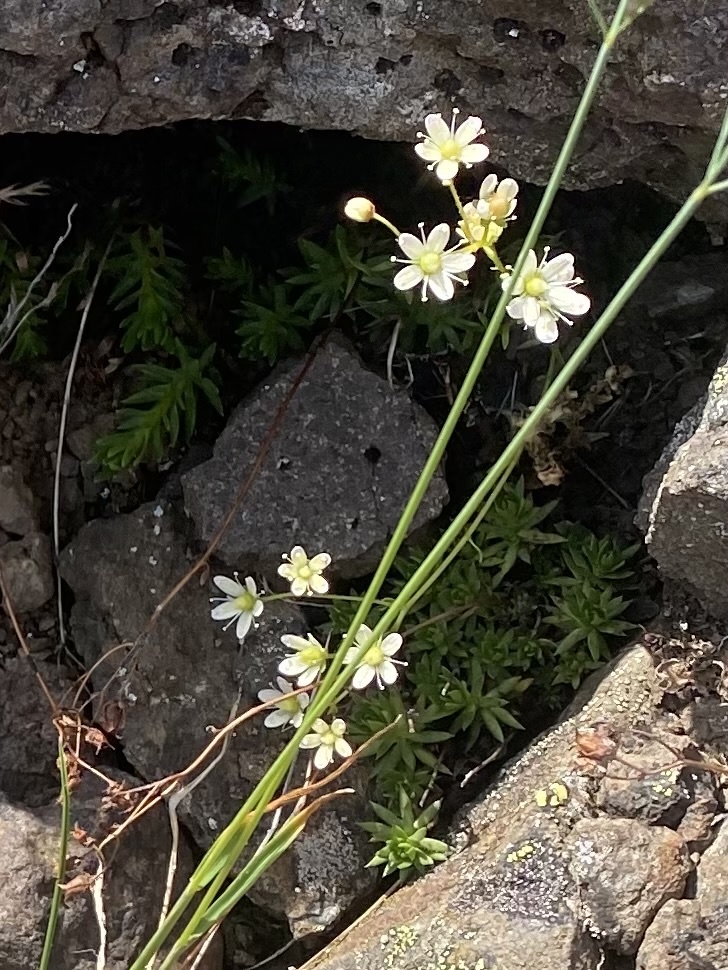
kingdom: Plantae
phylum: Tracheophyta
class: Magnoliopsida
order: Saxifragales
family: Saxifragaceae
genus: Saxifraga
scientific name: Saxifraga
